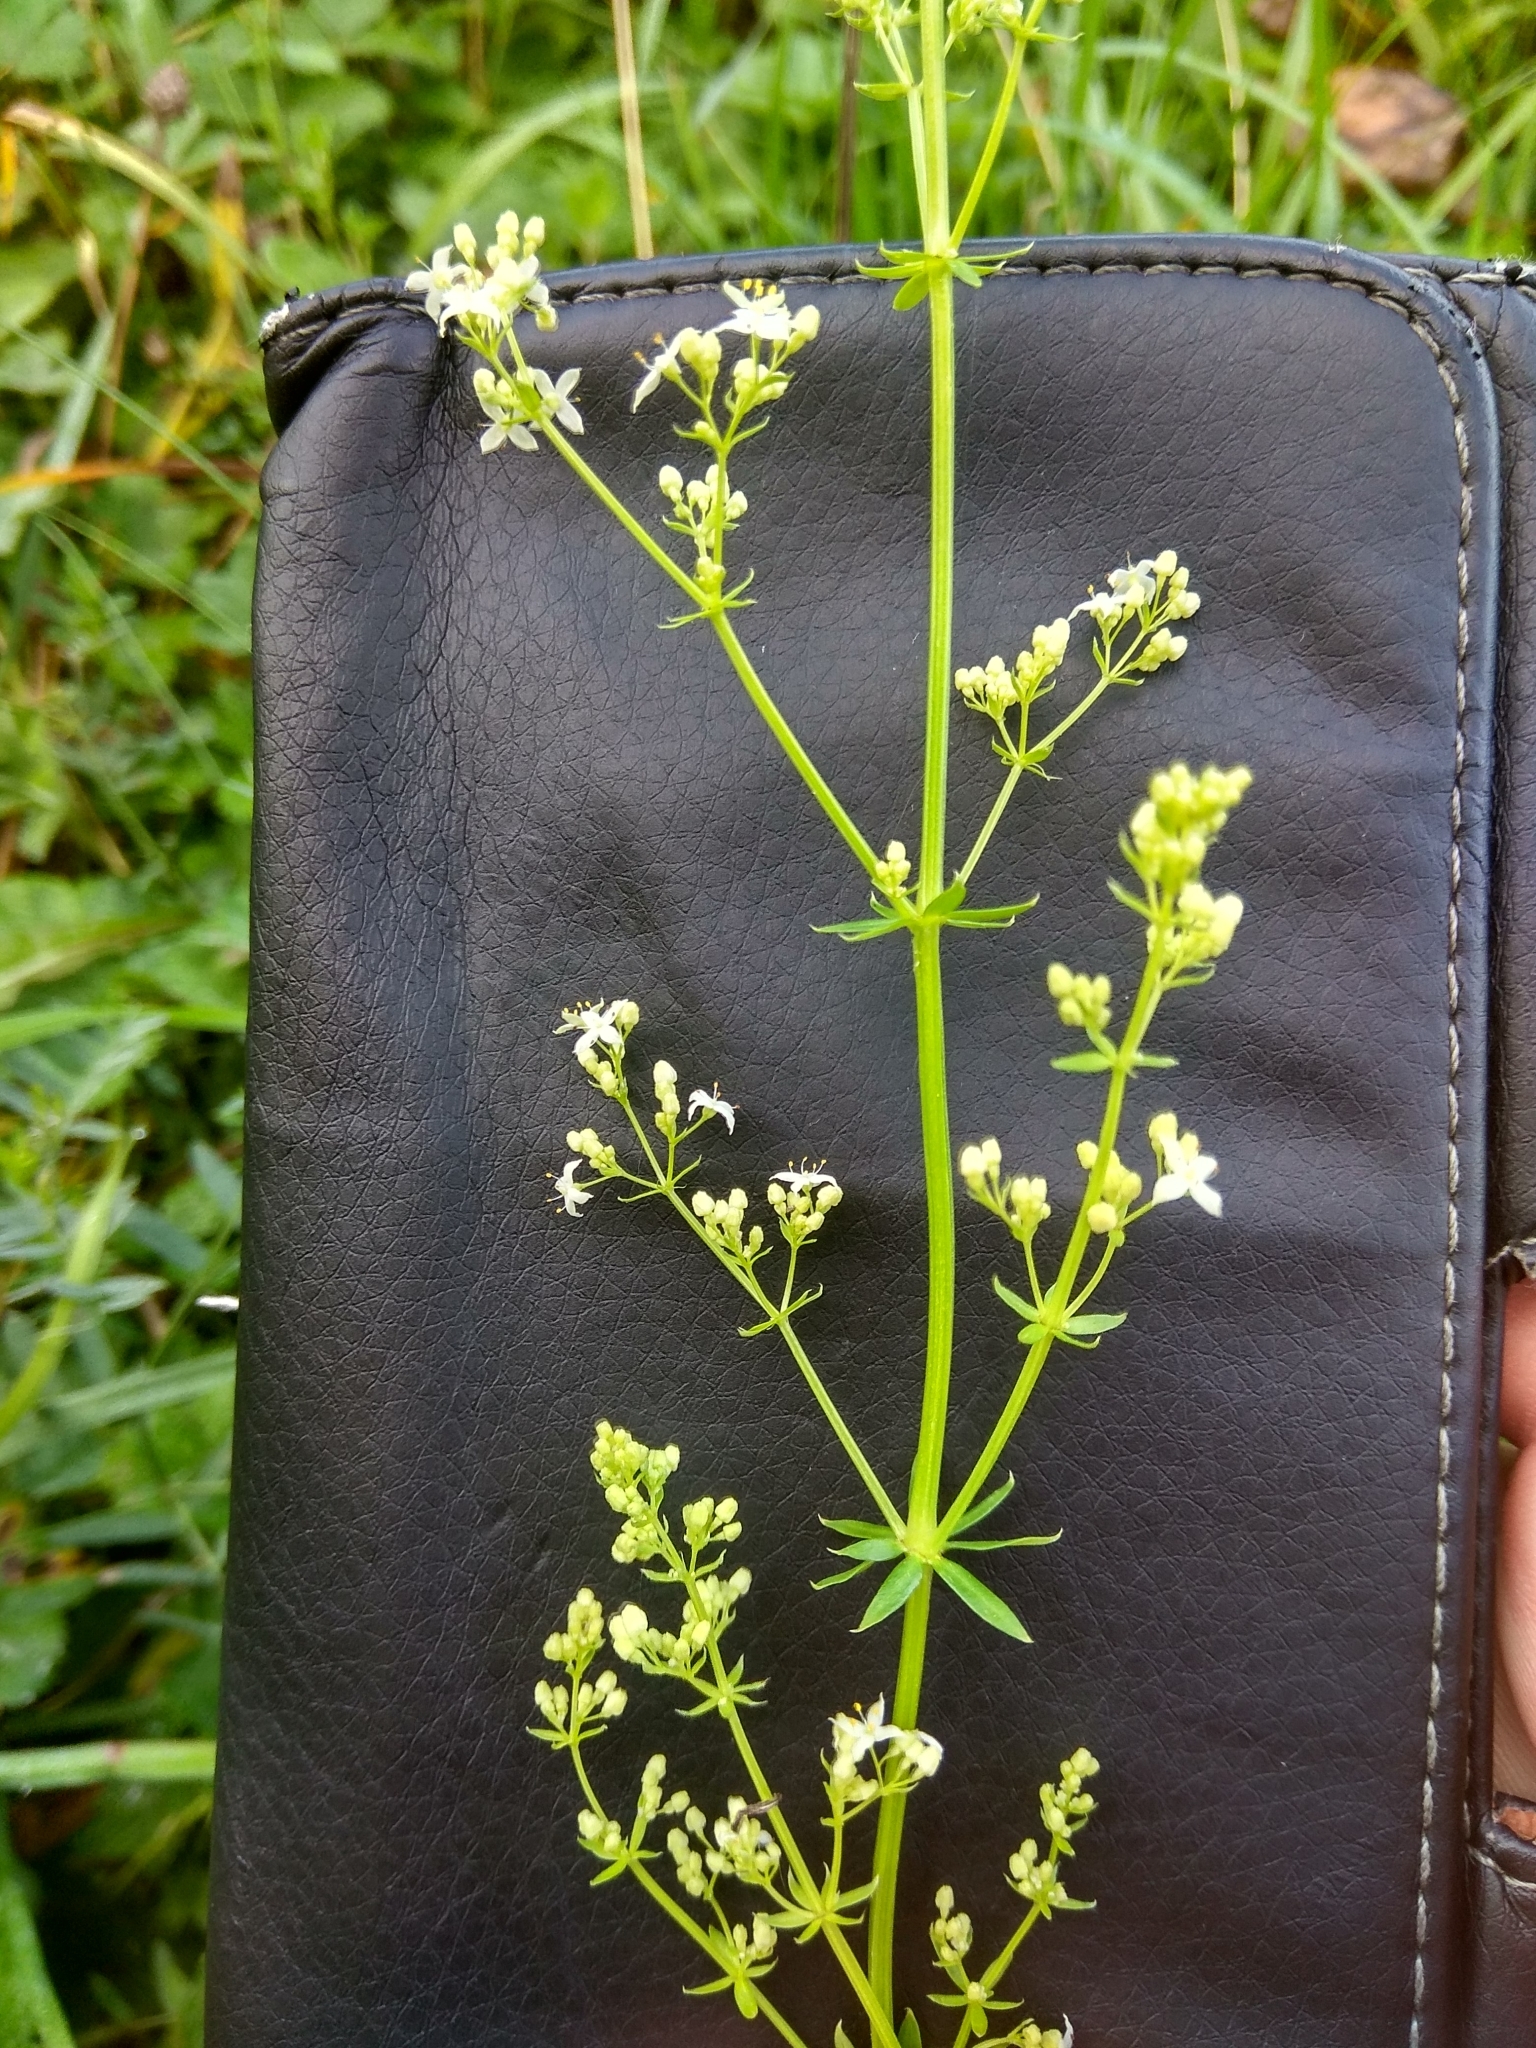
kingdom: Plantae
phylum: Tracheophyta
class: Magnoliopsida
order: Gentianales
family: Rubiaceae
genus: Galium
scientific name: Galium mollugo
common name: Hedge bedstraw
